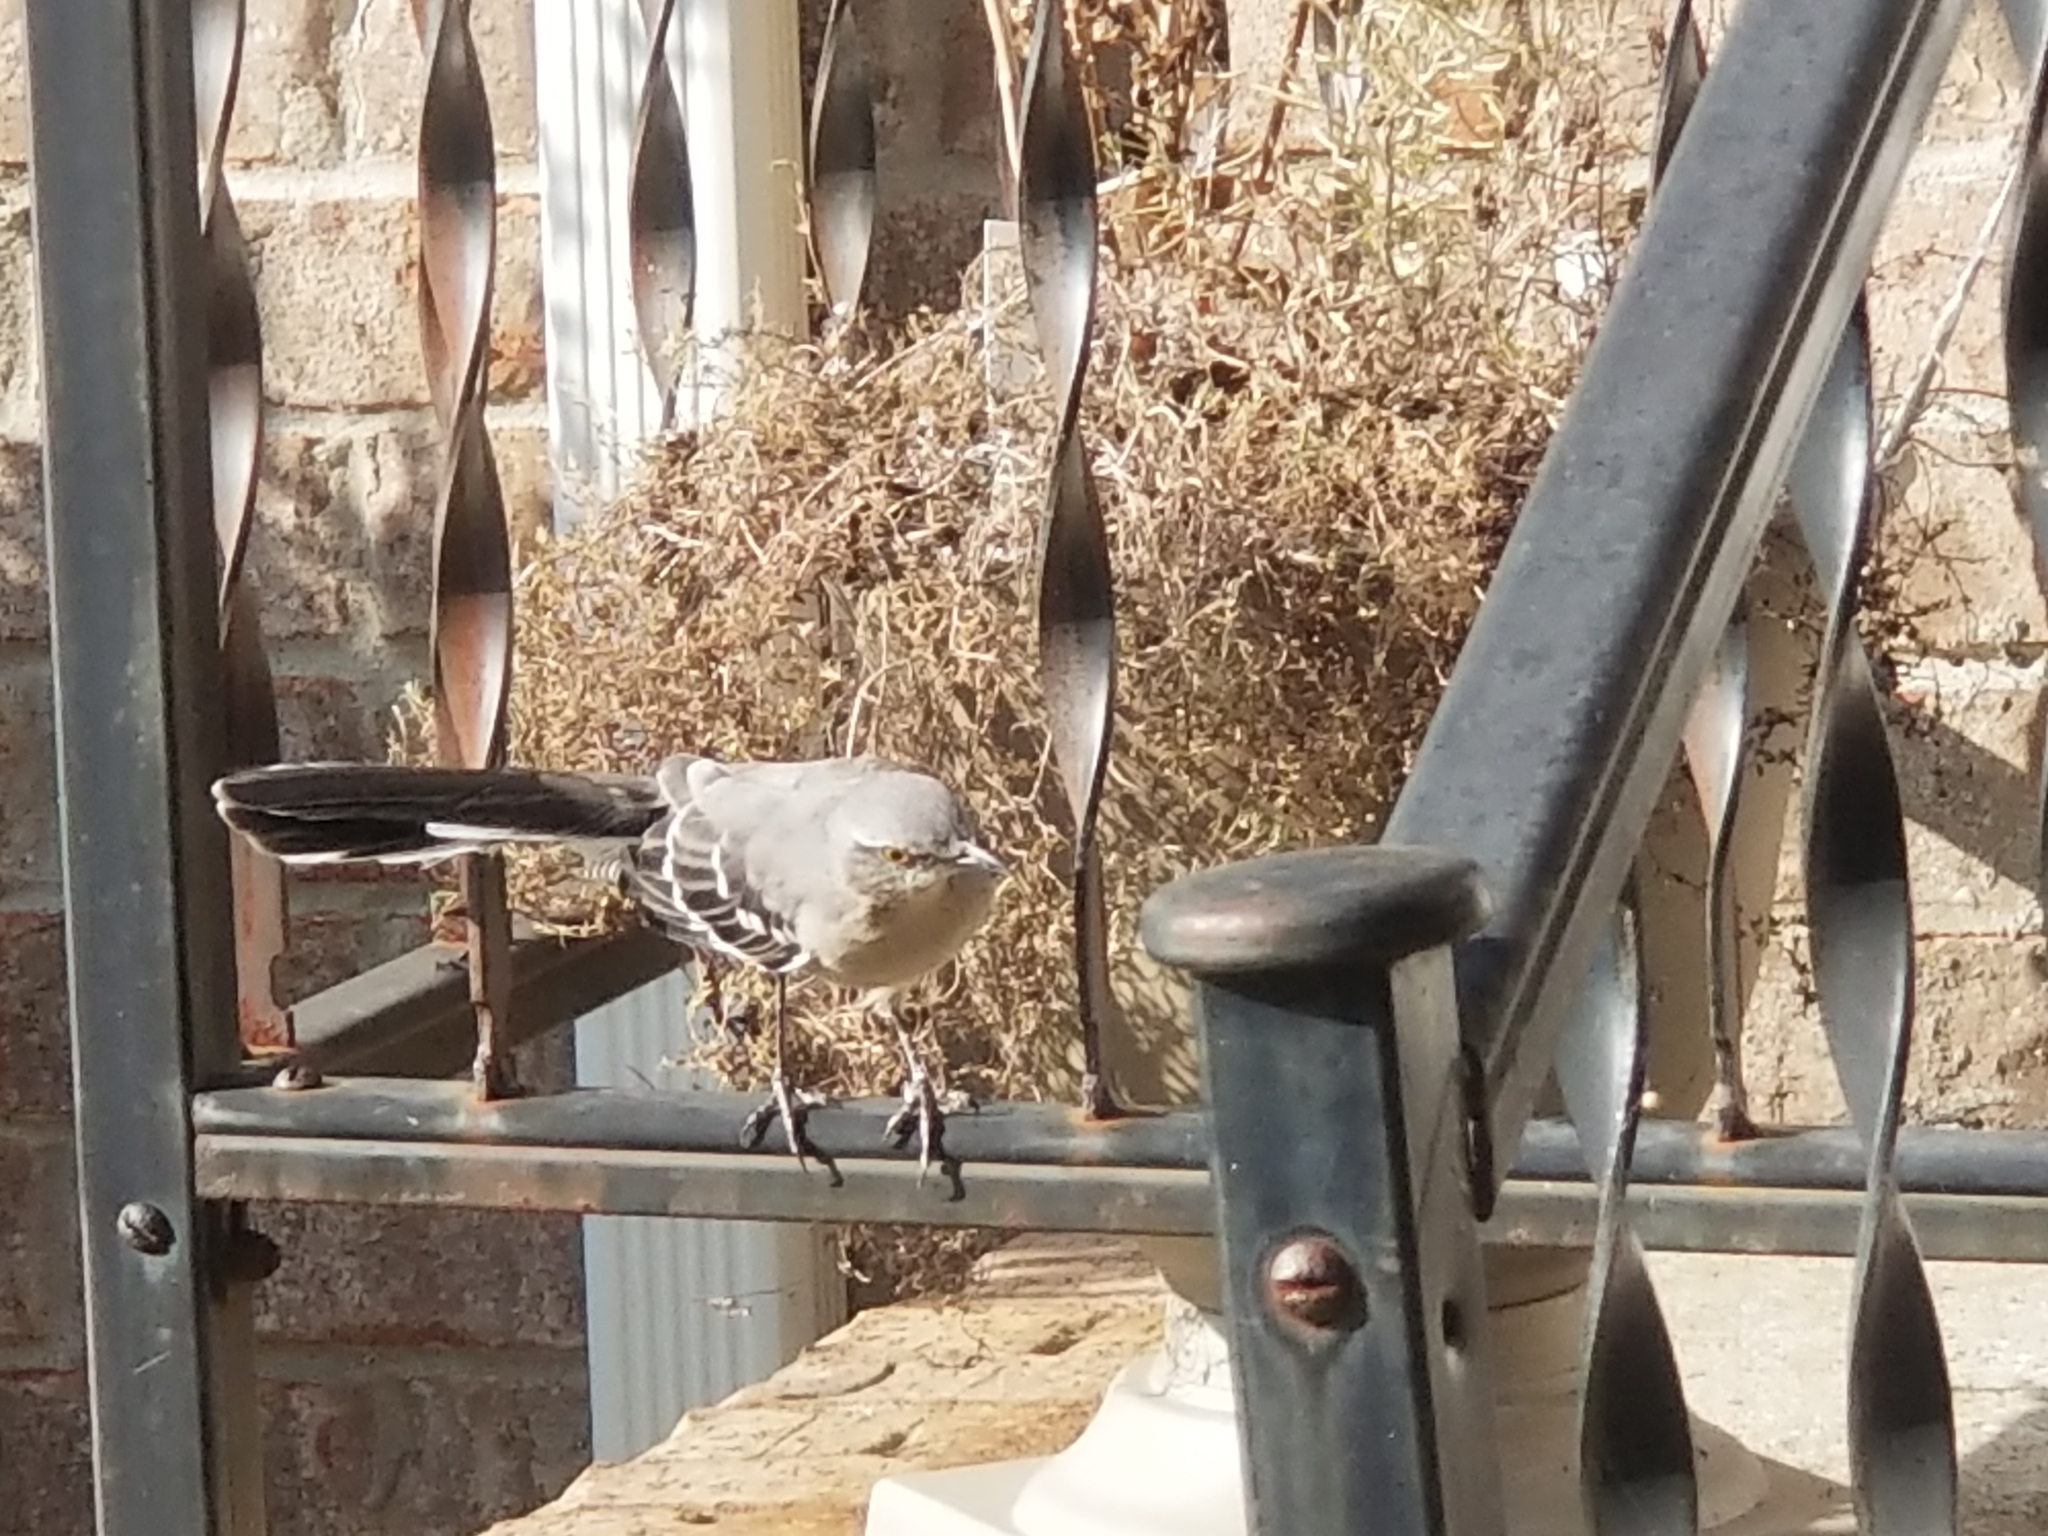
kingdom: Animalia
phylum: Chordata
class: Aves
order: Passeriformes
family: Mimidae
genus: Mimus
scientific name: Mimus polyglottos
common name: Northern mockingbird
